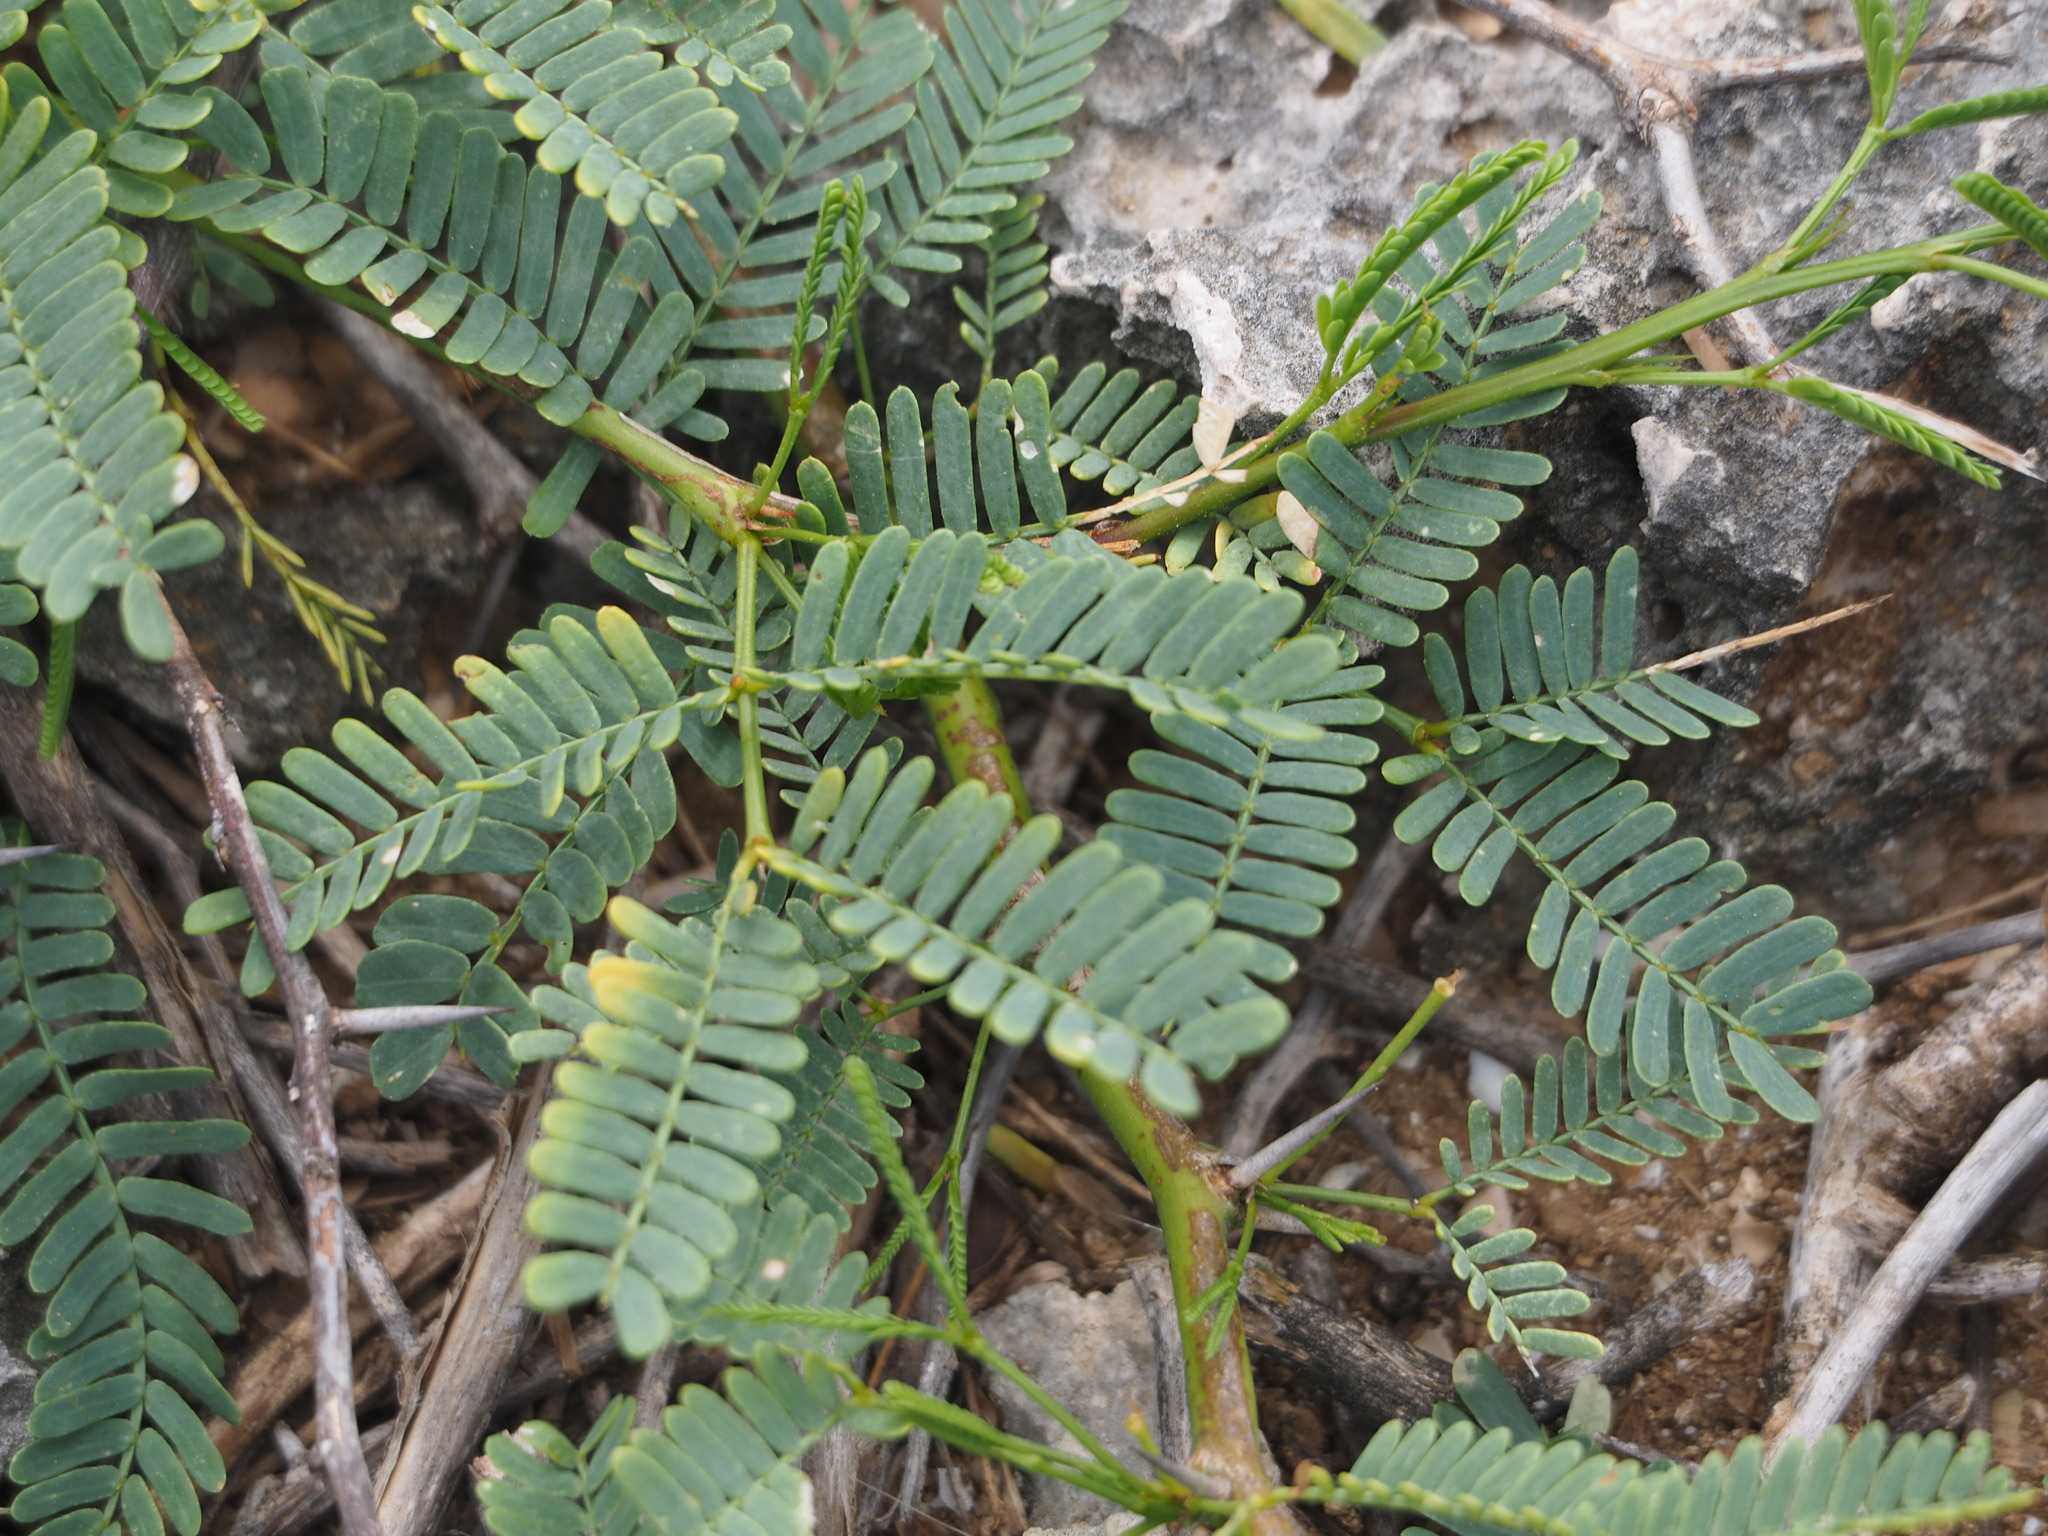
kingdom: Plantae
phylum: Tracheophyta
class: Magnoliopsida
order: Fabales
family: Fabaceae
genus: Prosopis
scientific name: Prosopis juliflora
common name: Mesquite
